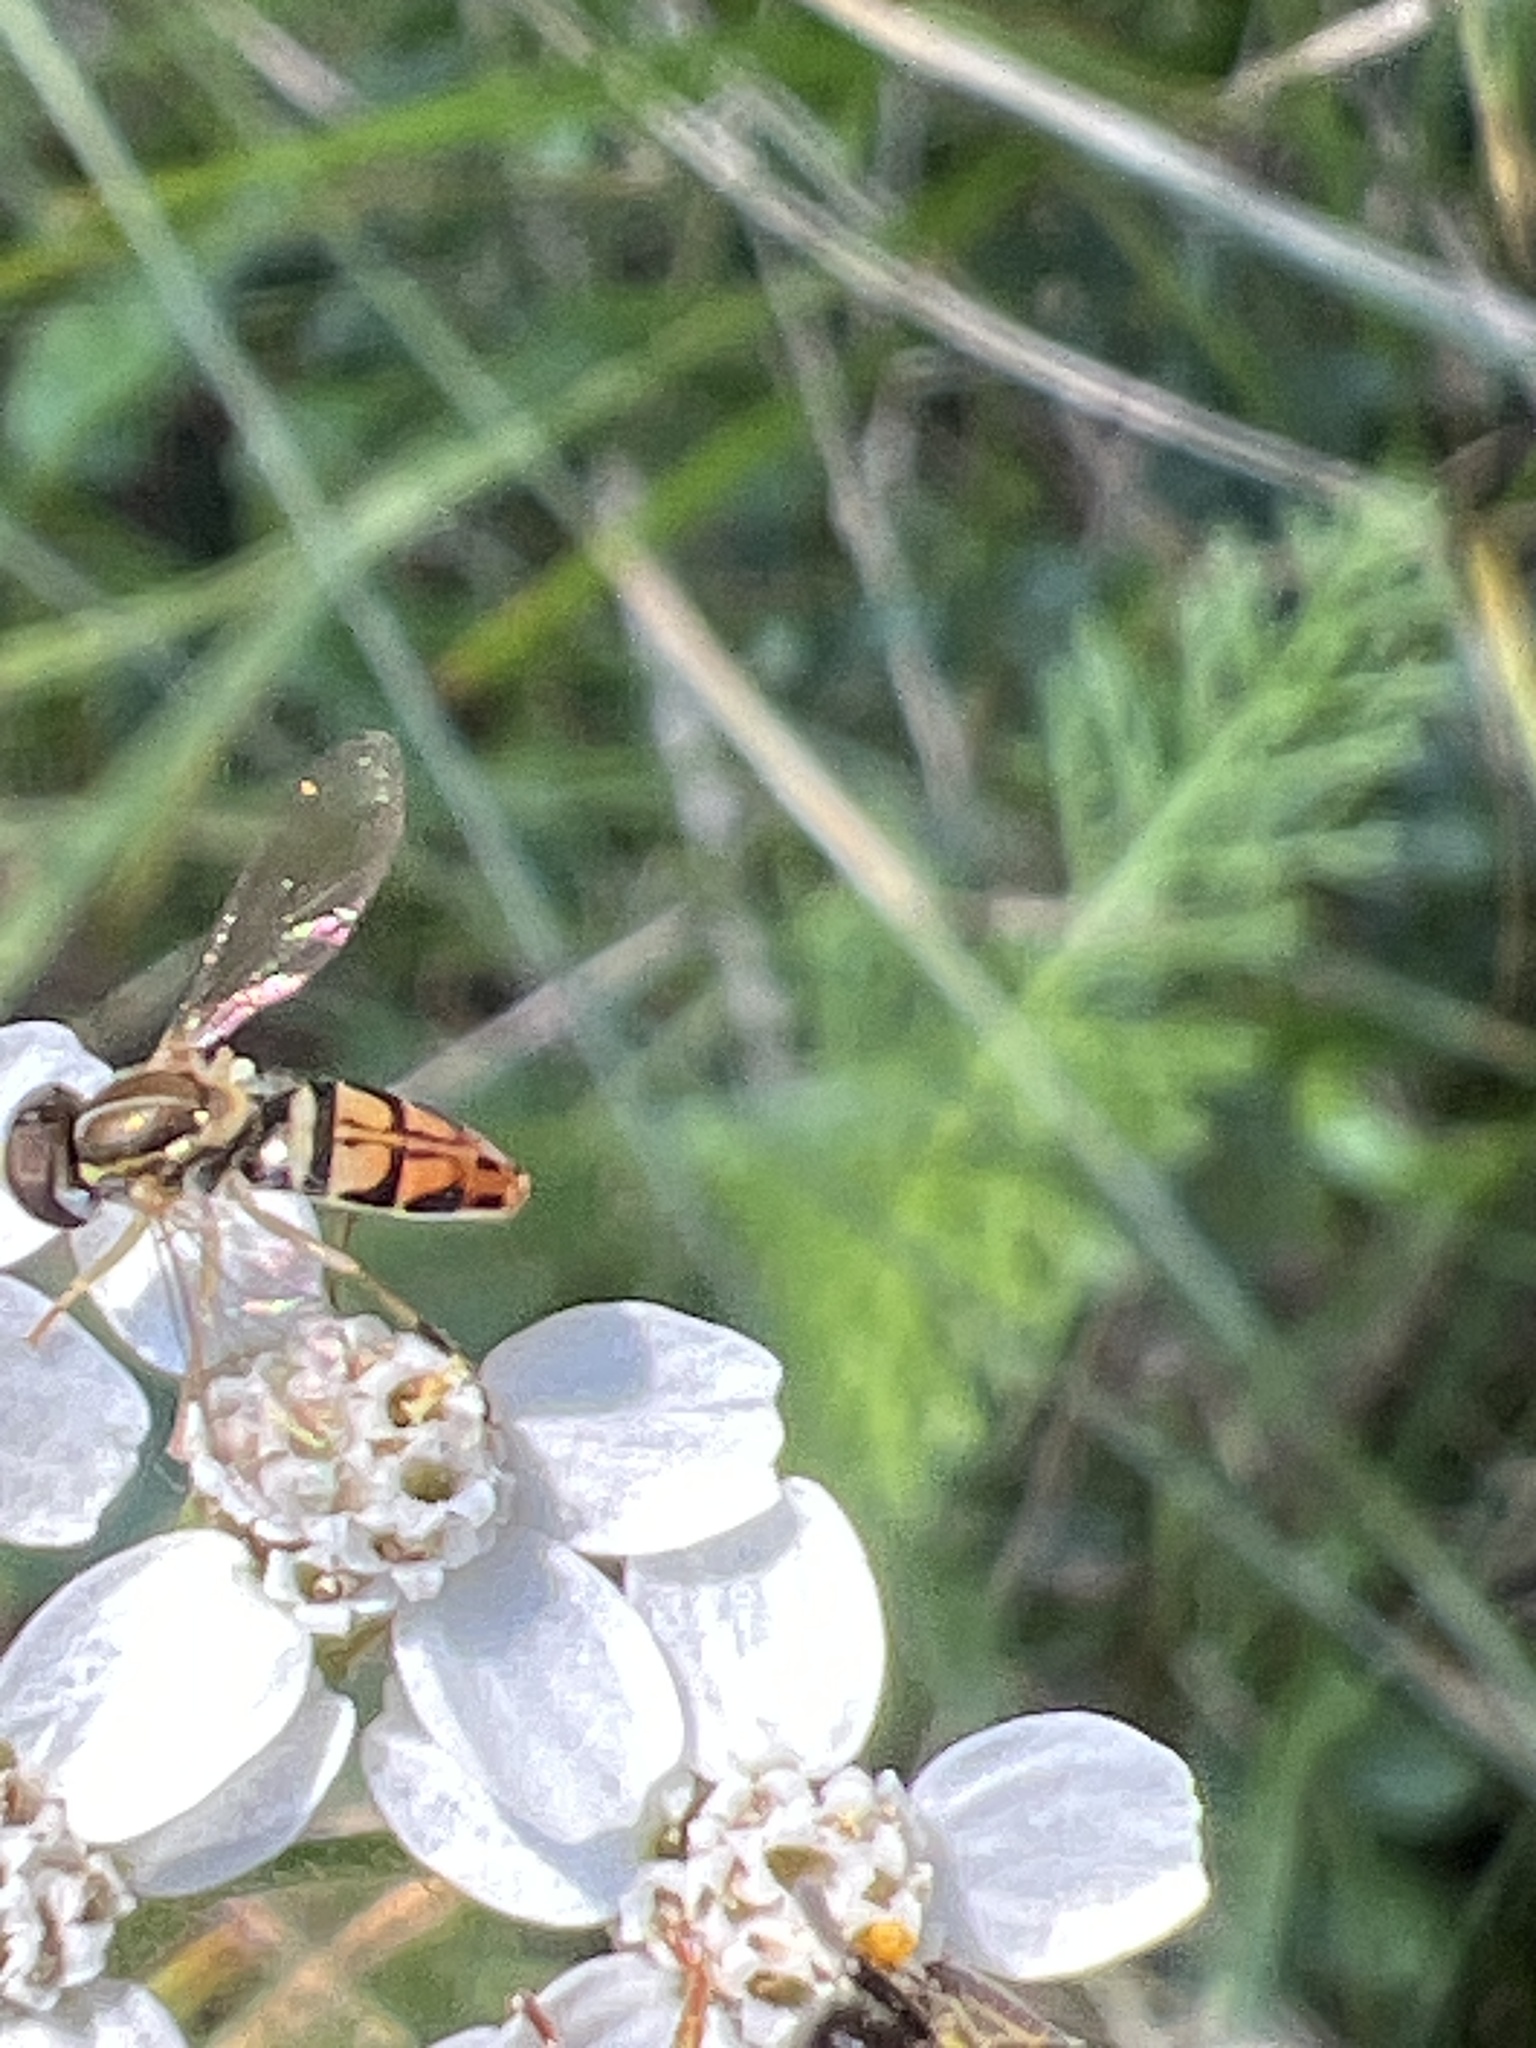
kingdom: Animalia
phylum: Arthropoda
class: Insecta
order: Diptera
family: Syrphidae
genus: Toxomerus
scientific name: Toxomerus marginatus
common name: Syrphid fly
